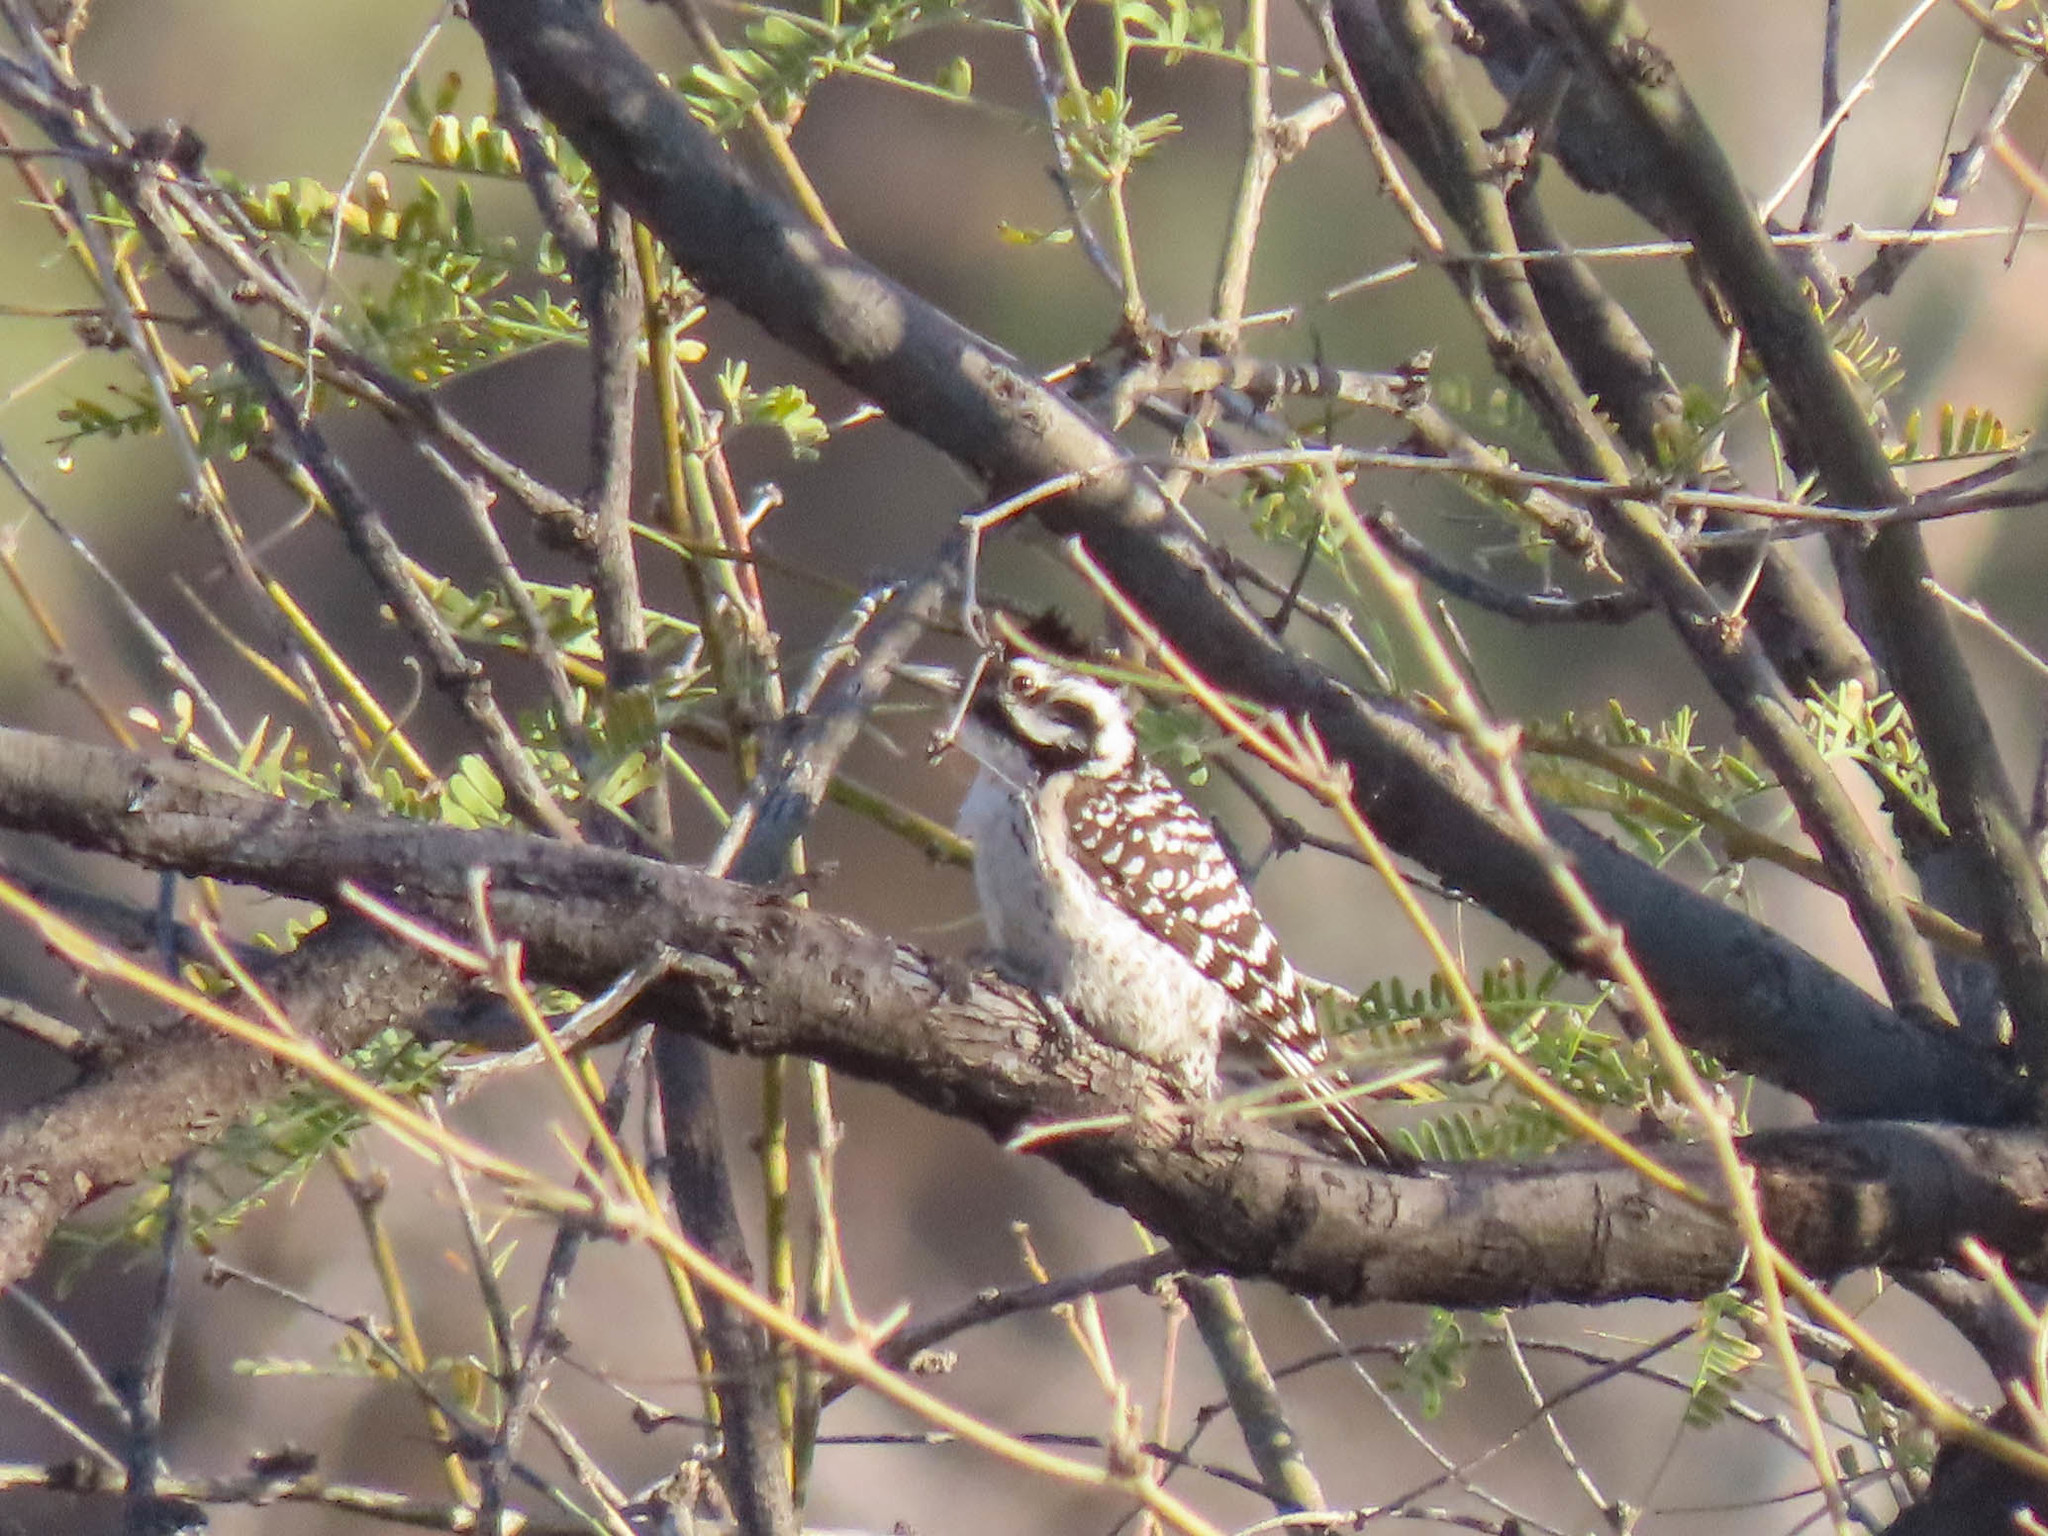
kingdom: Animalia
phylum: Chordata
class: Aves
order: Piciformes
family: Picidae
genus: Dryobates
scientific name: Dryobates scalaris
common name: Ladder-backed woodpecker
